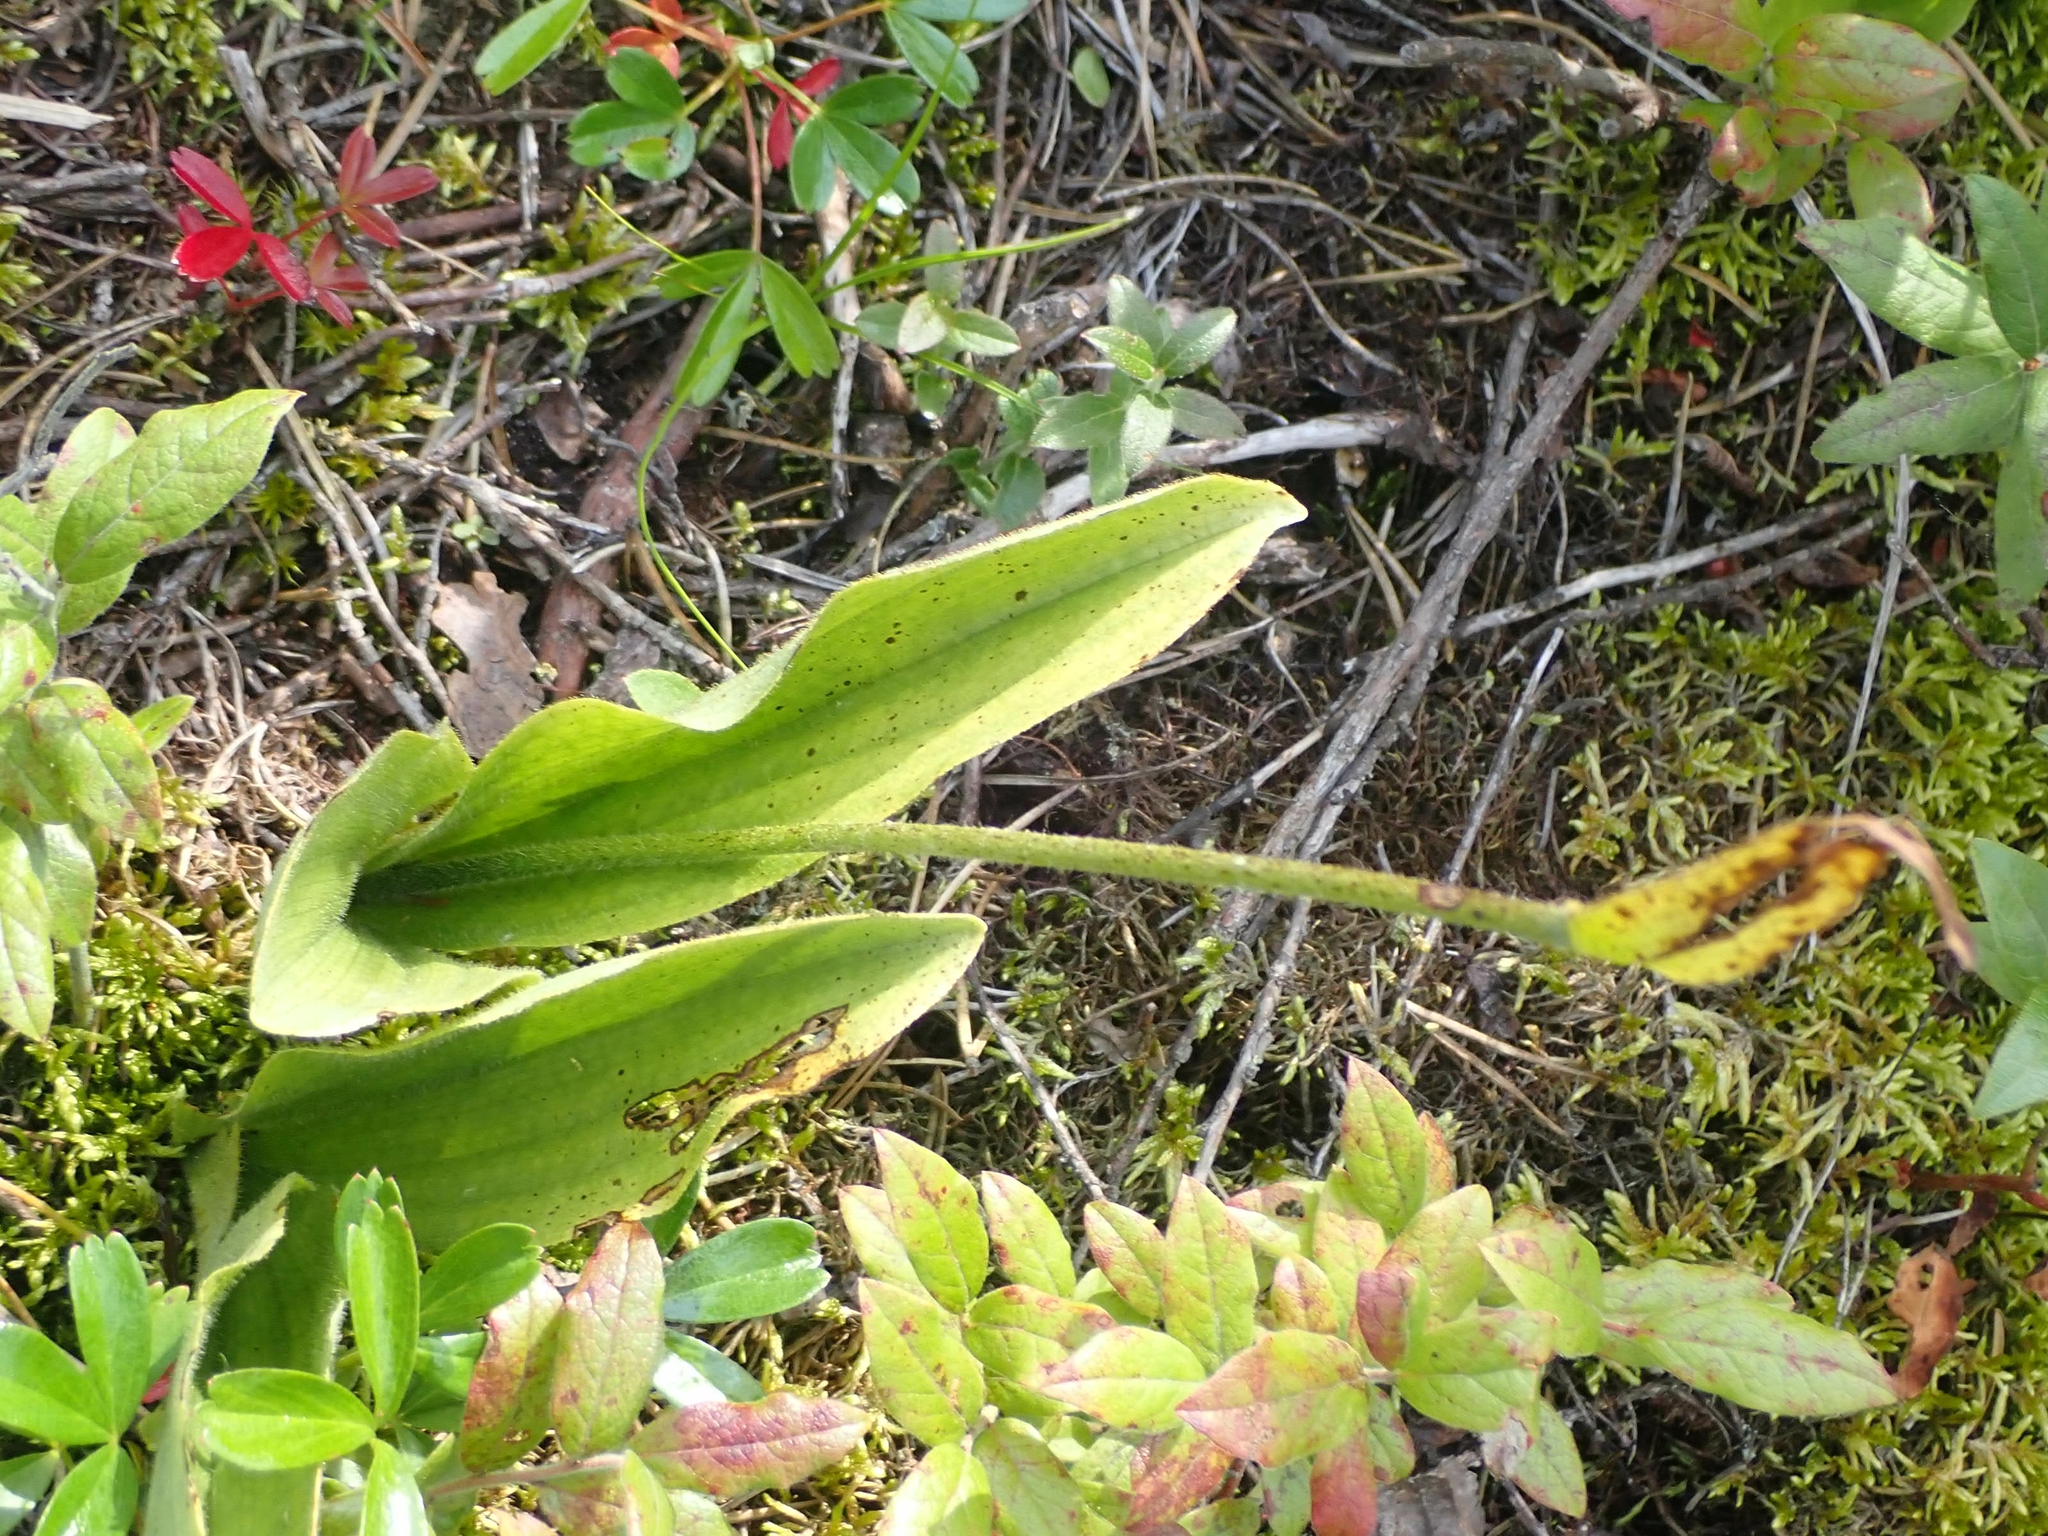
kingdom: Plantae
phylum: Tracheophyta
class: Liliopsida
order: Asparagales
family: Orchidaceae
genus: Cypripedium
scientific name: Cypripedium acaule
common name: Pink lady's-slipper
